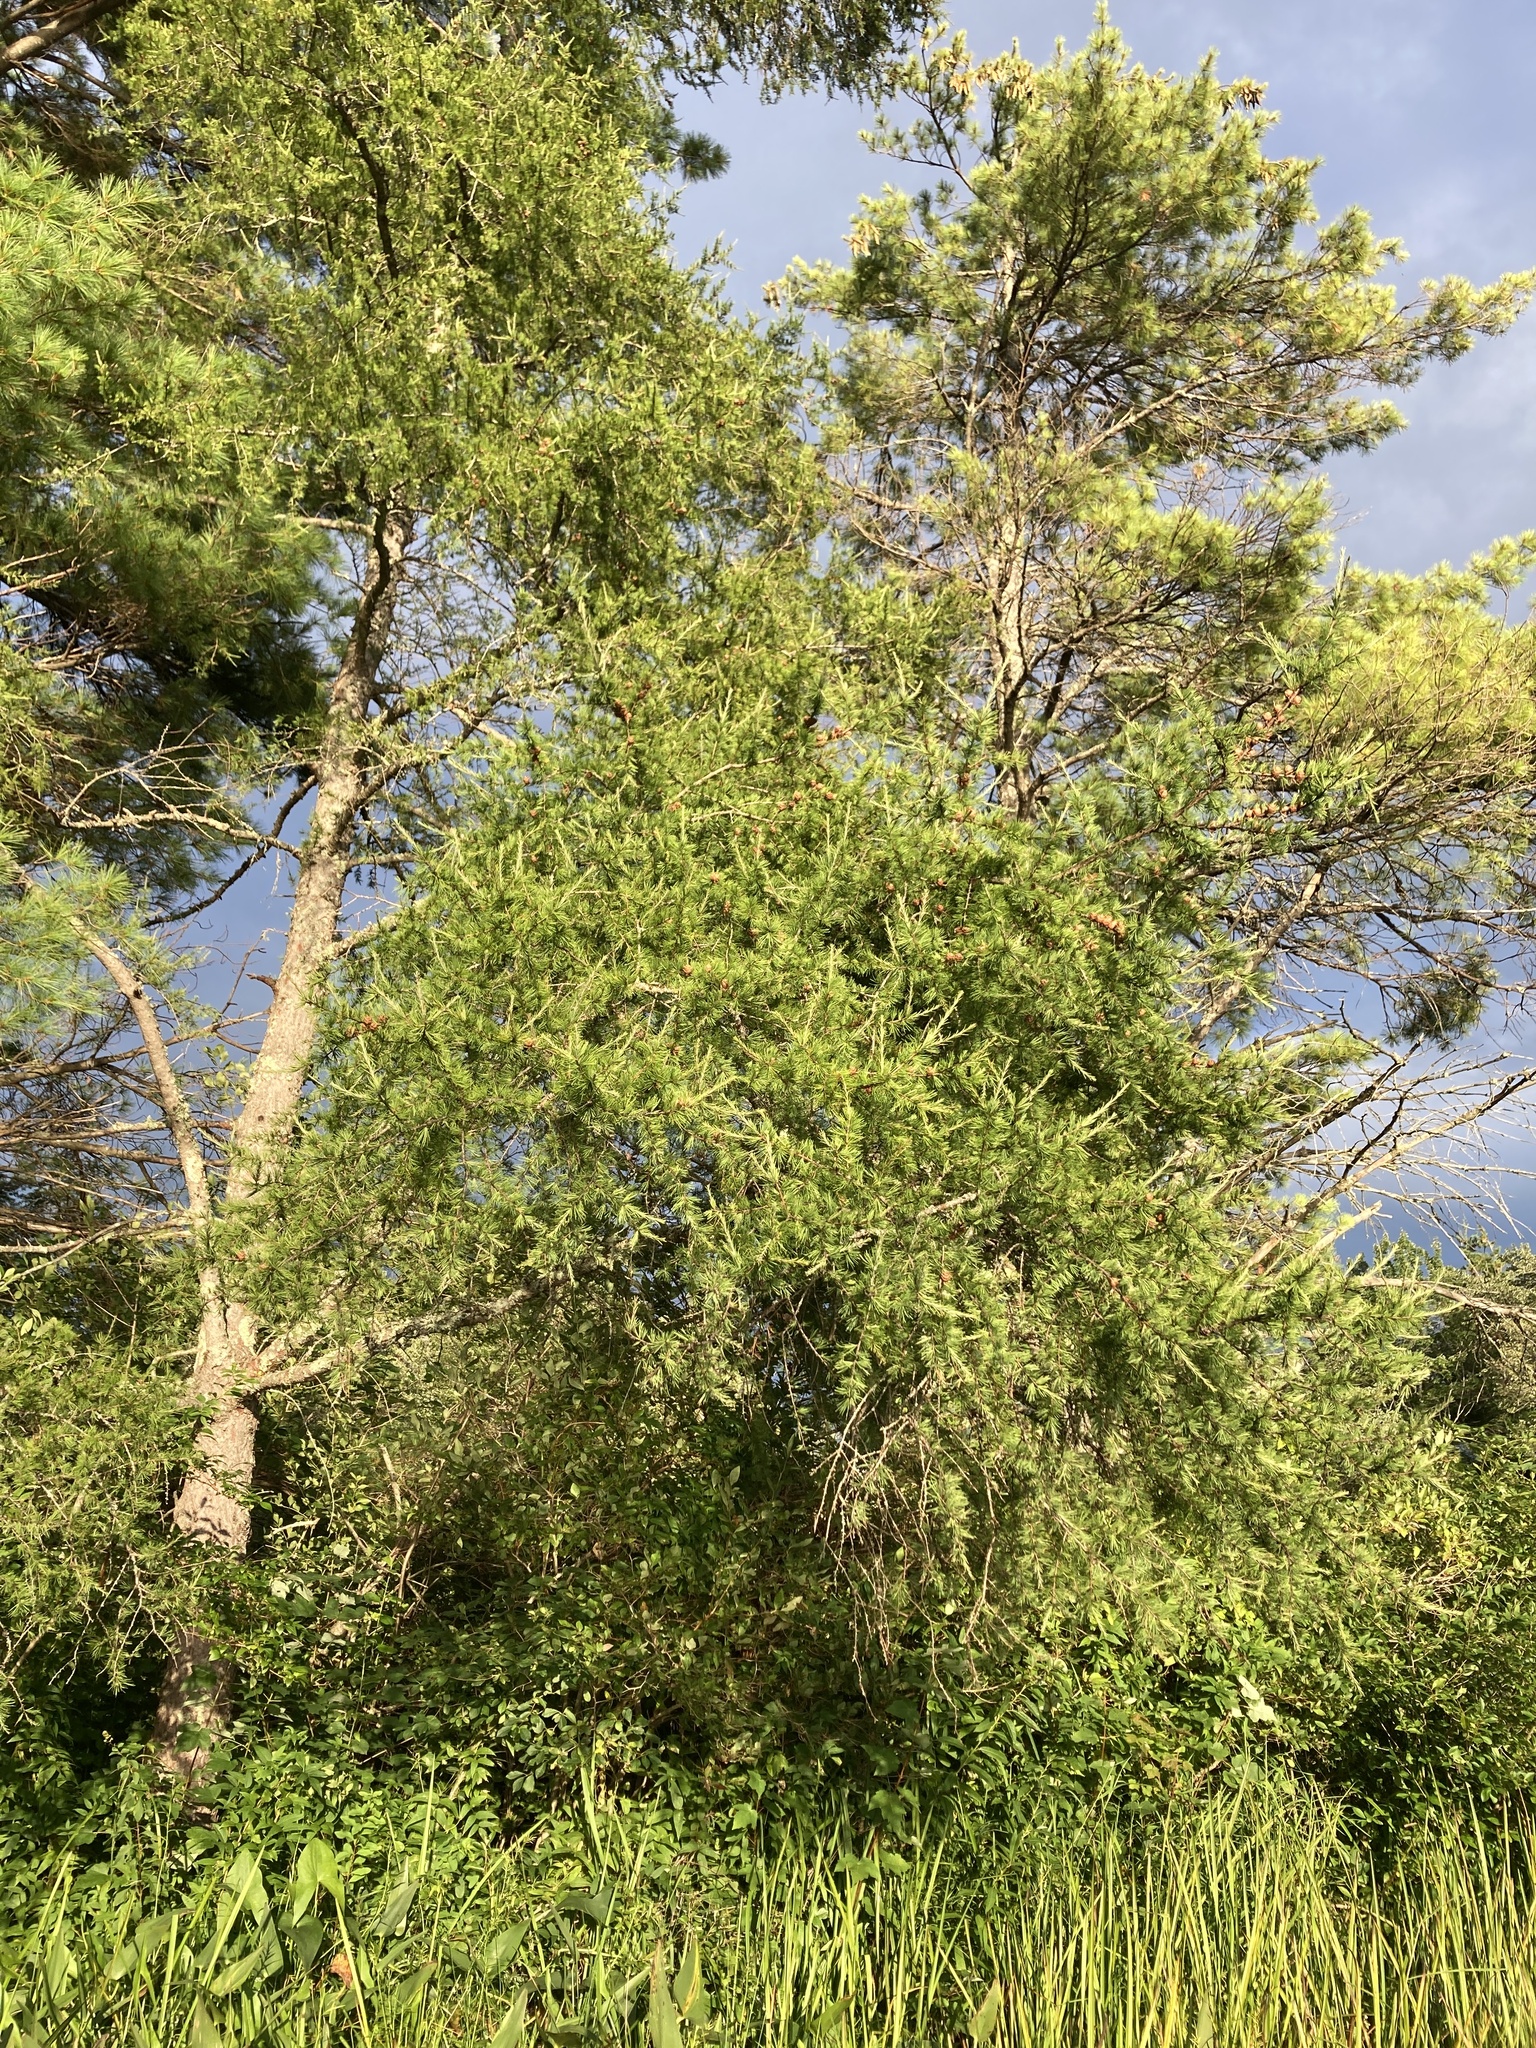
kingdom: Plantae
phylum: Tracheophyta
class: Pinopsida
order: Pinales
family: Pinaceae
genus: Larix
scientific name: Larix laricina
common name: American larch
